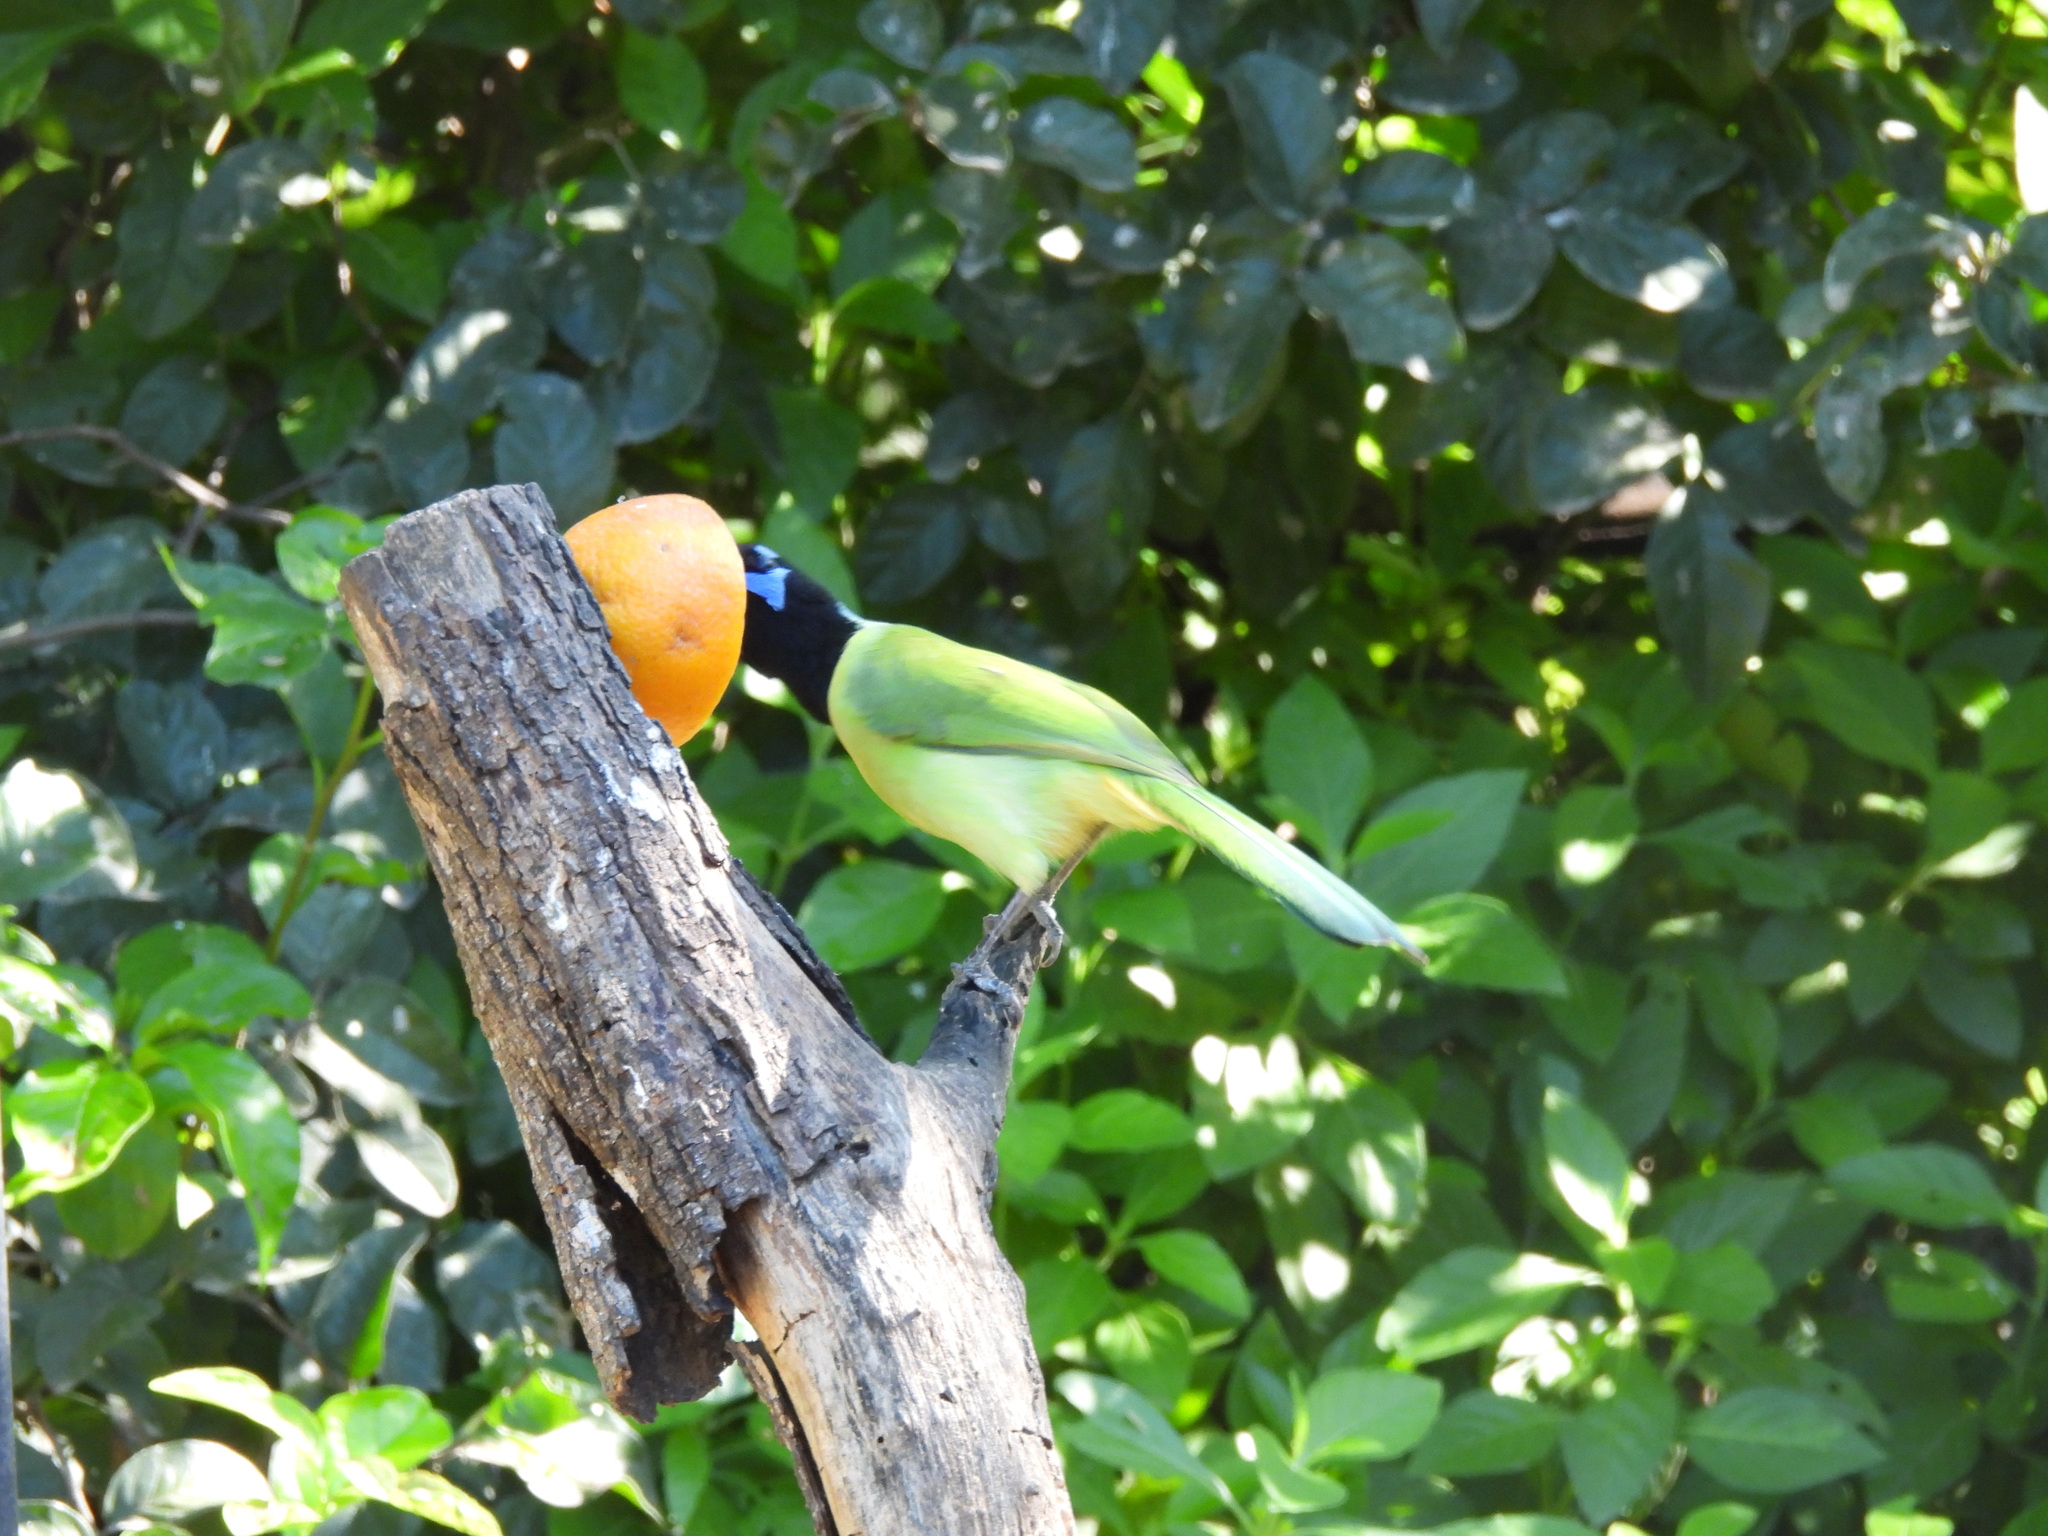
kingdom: Animalia
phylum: Chordata
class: Aves
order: Passeriformes
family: Corvidae
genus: Cyanocorax
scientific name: Cyanocorax yncas
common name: Green jay
